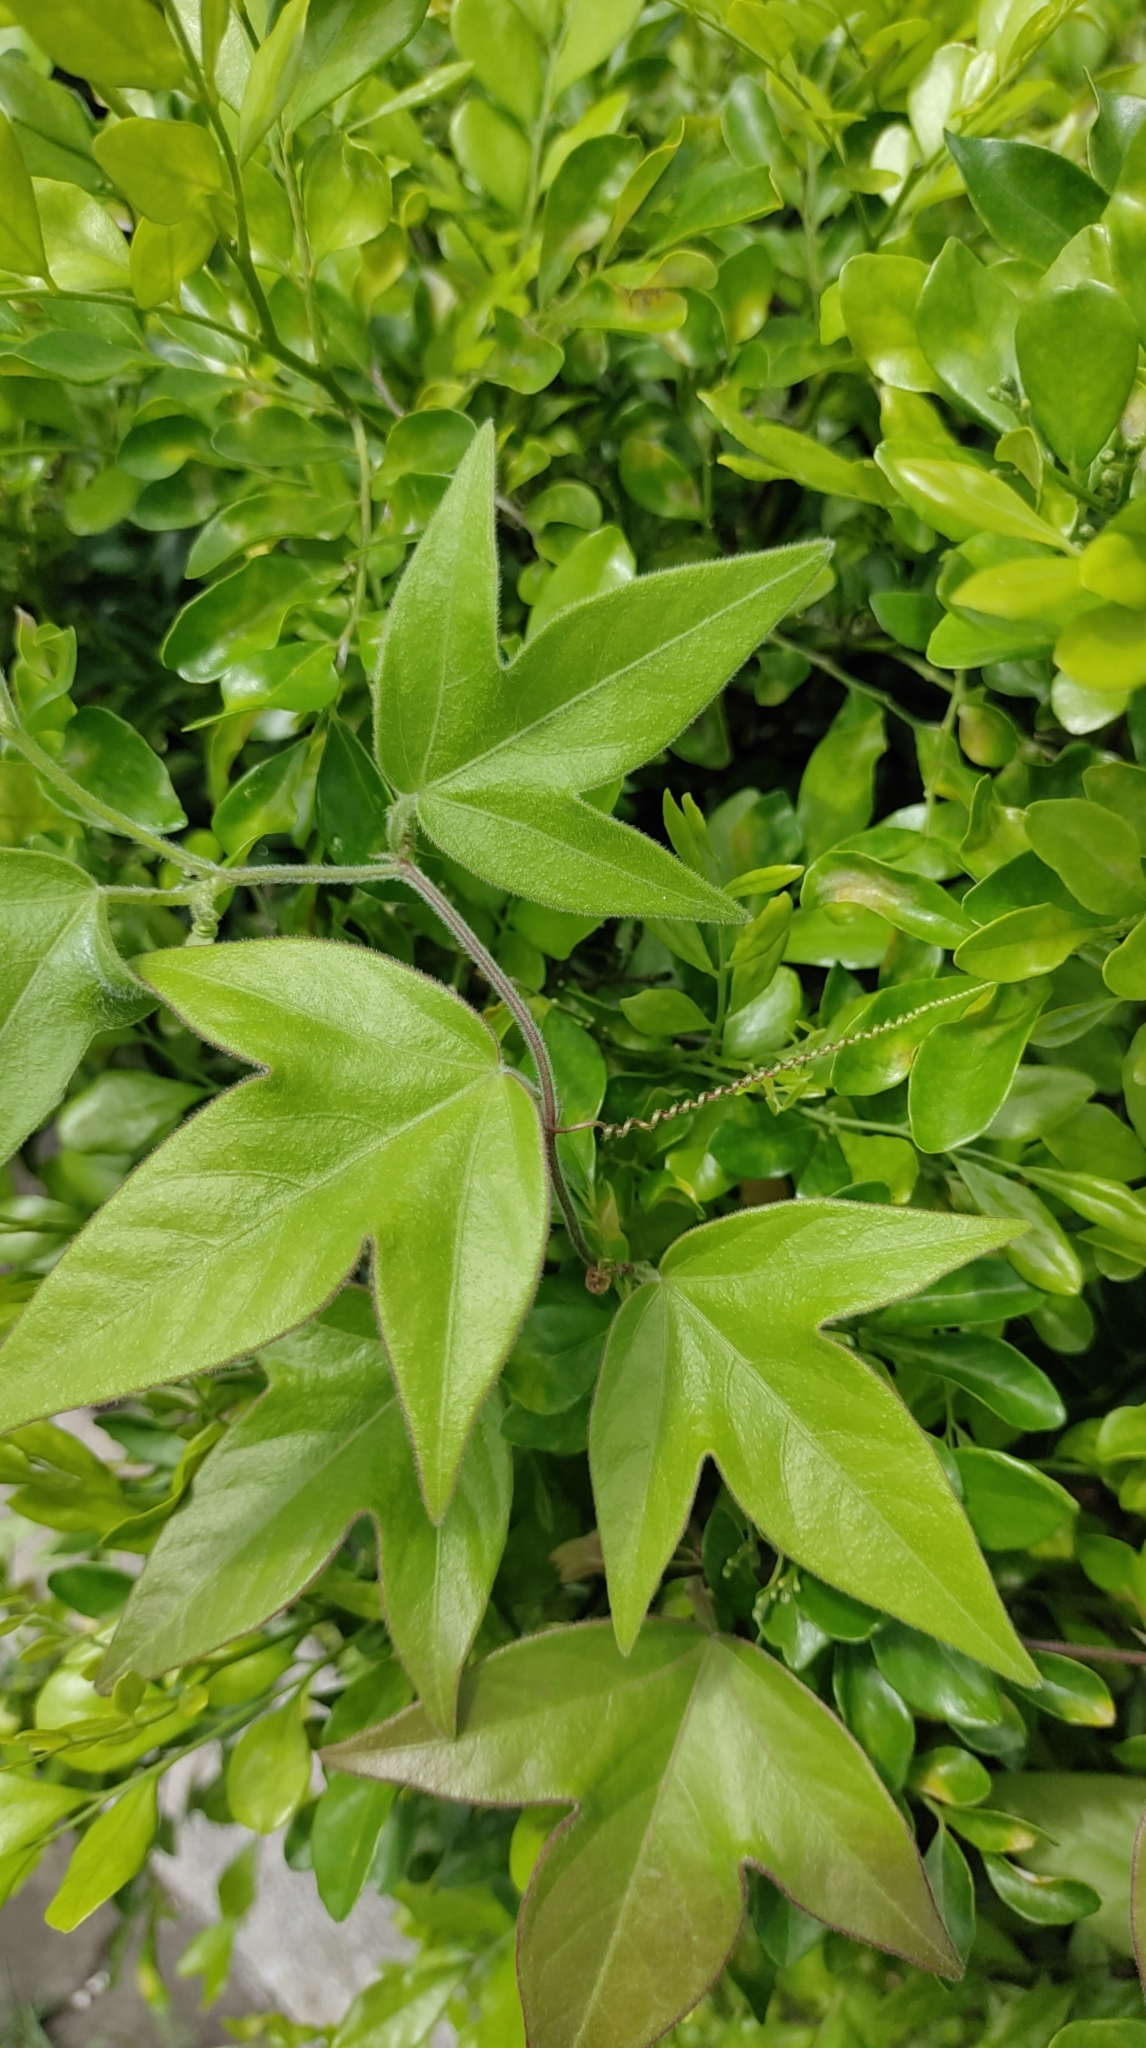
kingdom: Plantae
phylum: Tracheophyta
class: Magnoliopsida
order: Malpighiales
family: Passifloraceae
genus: Passiflora
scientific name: Passiflora suberosa
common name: Wild passionfruit
